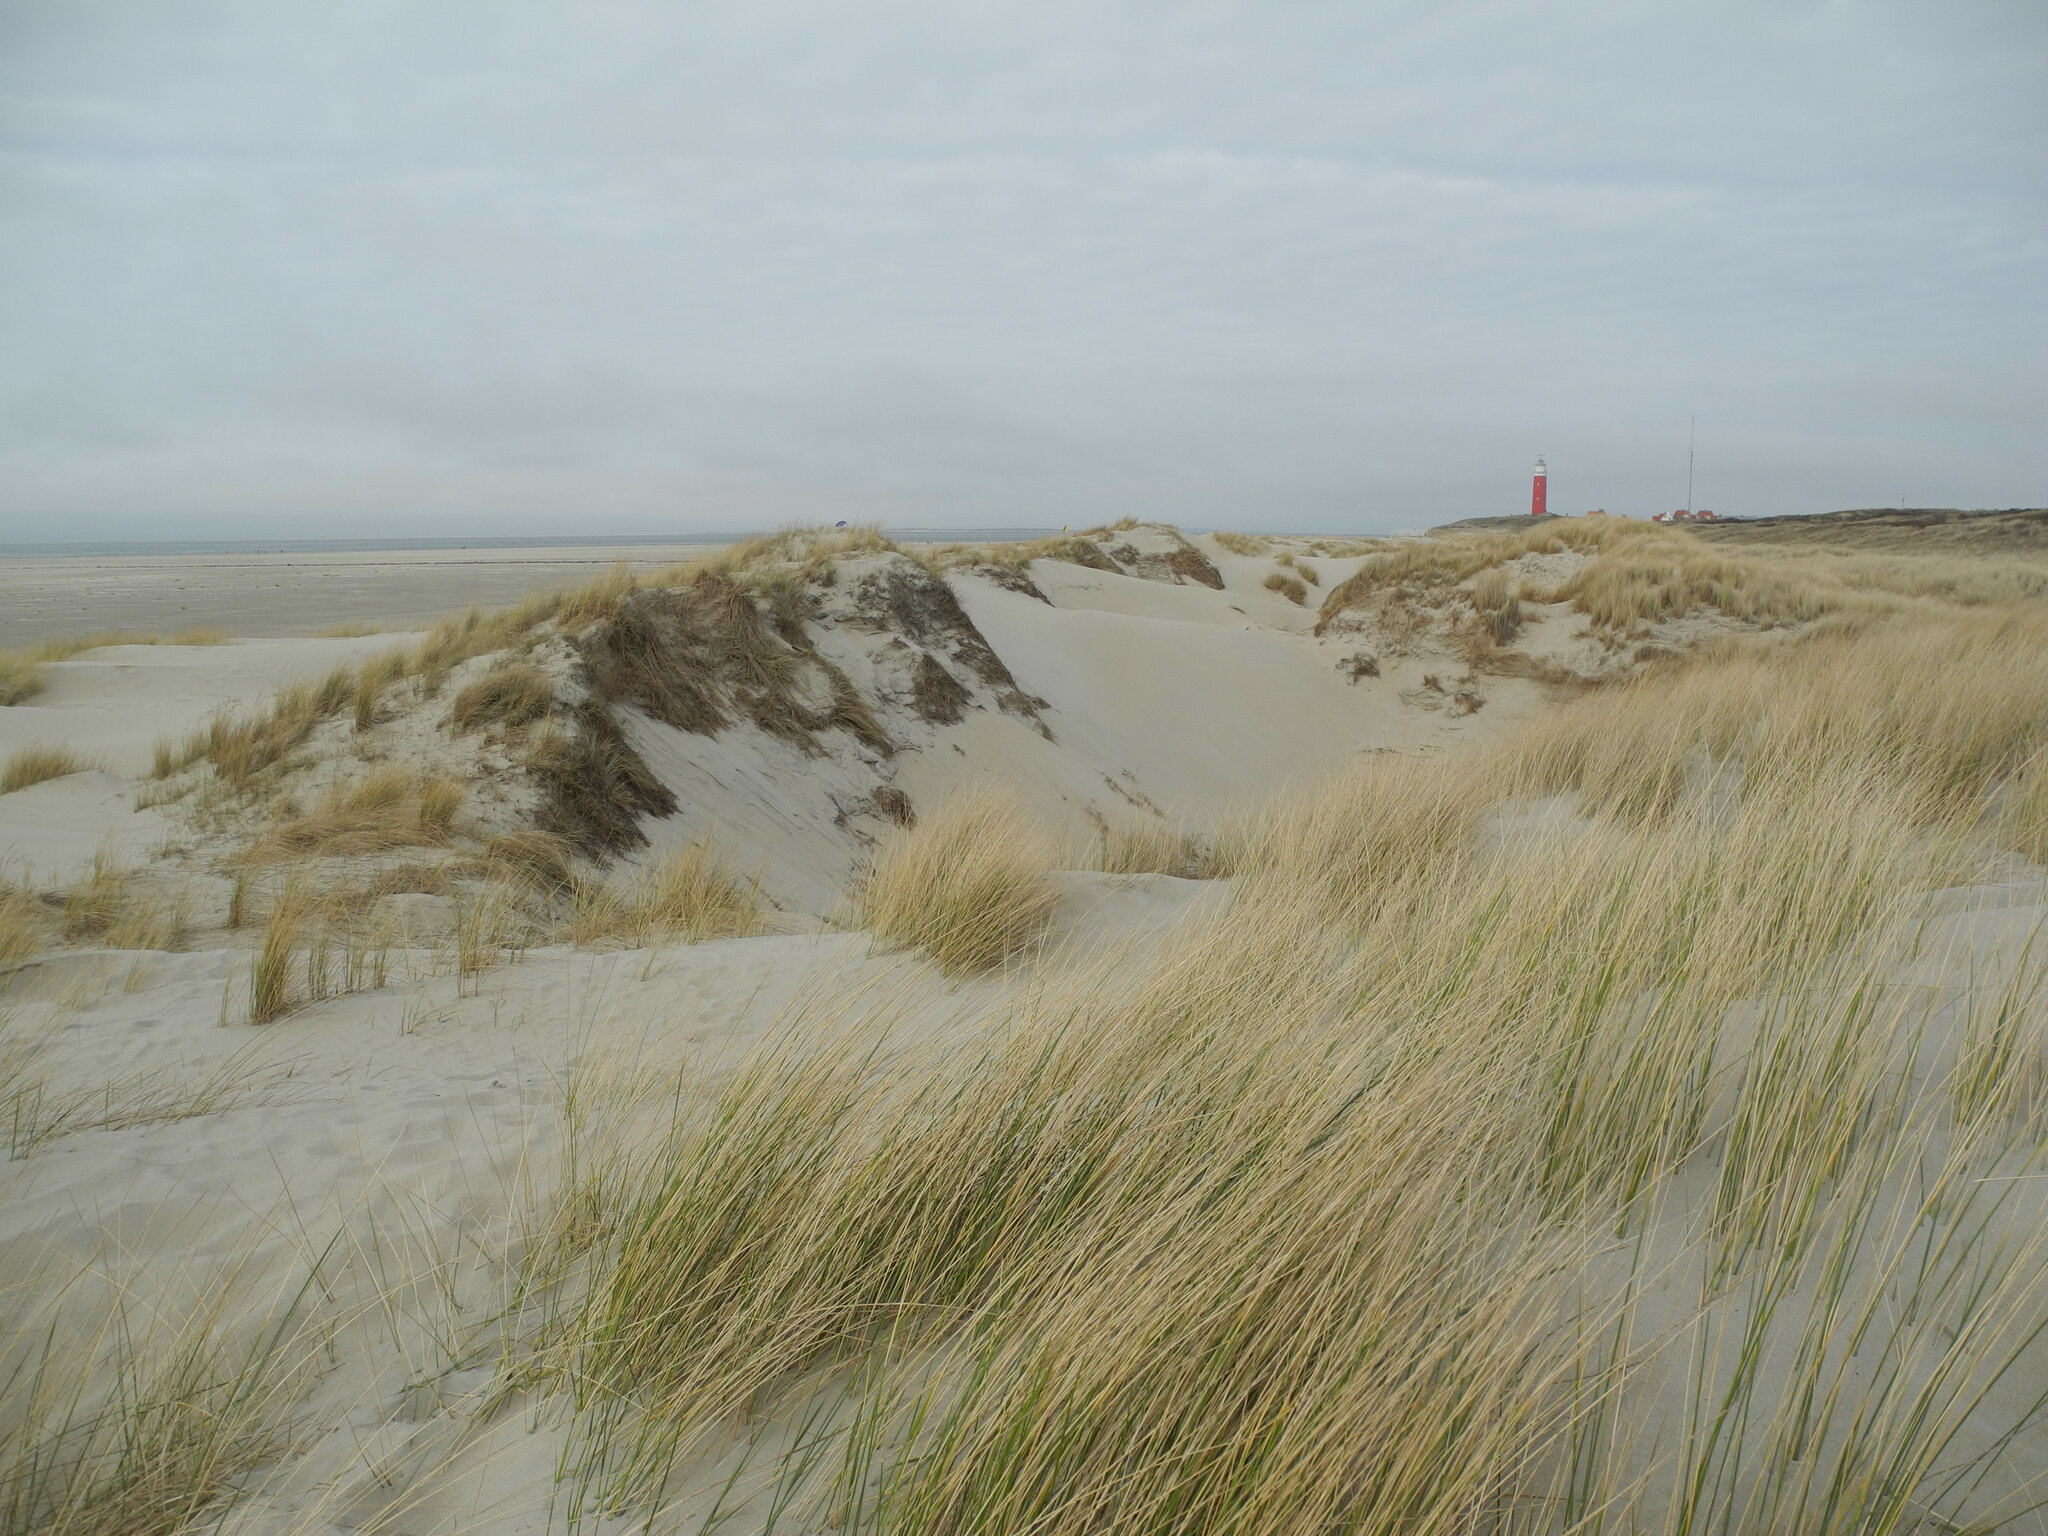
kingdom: Plantae
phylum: Tracheophyta
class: Liliopsida
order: Poales
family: Poaceae
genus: Calamagrostis
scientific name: Calamagrostis arenaria
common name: European beachgrass
